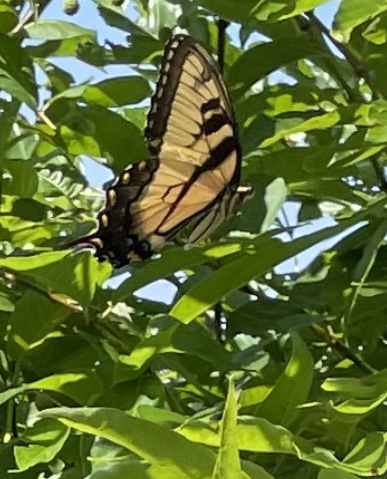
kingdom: Animalia
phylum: Arthropoda
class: Insecta
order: Lepidoptera
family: Papilionidae
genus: Papilio
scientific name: Papilio glaucus
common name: Tiger swallowtail
